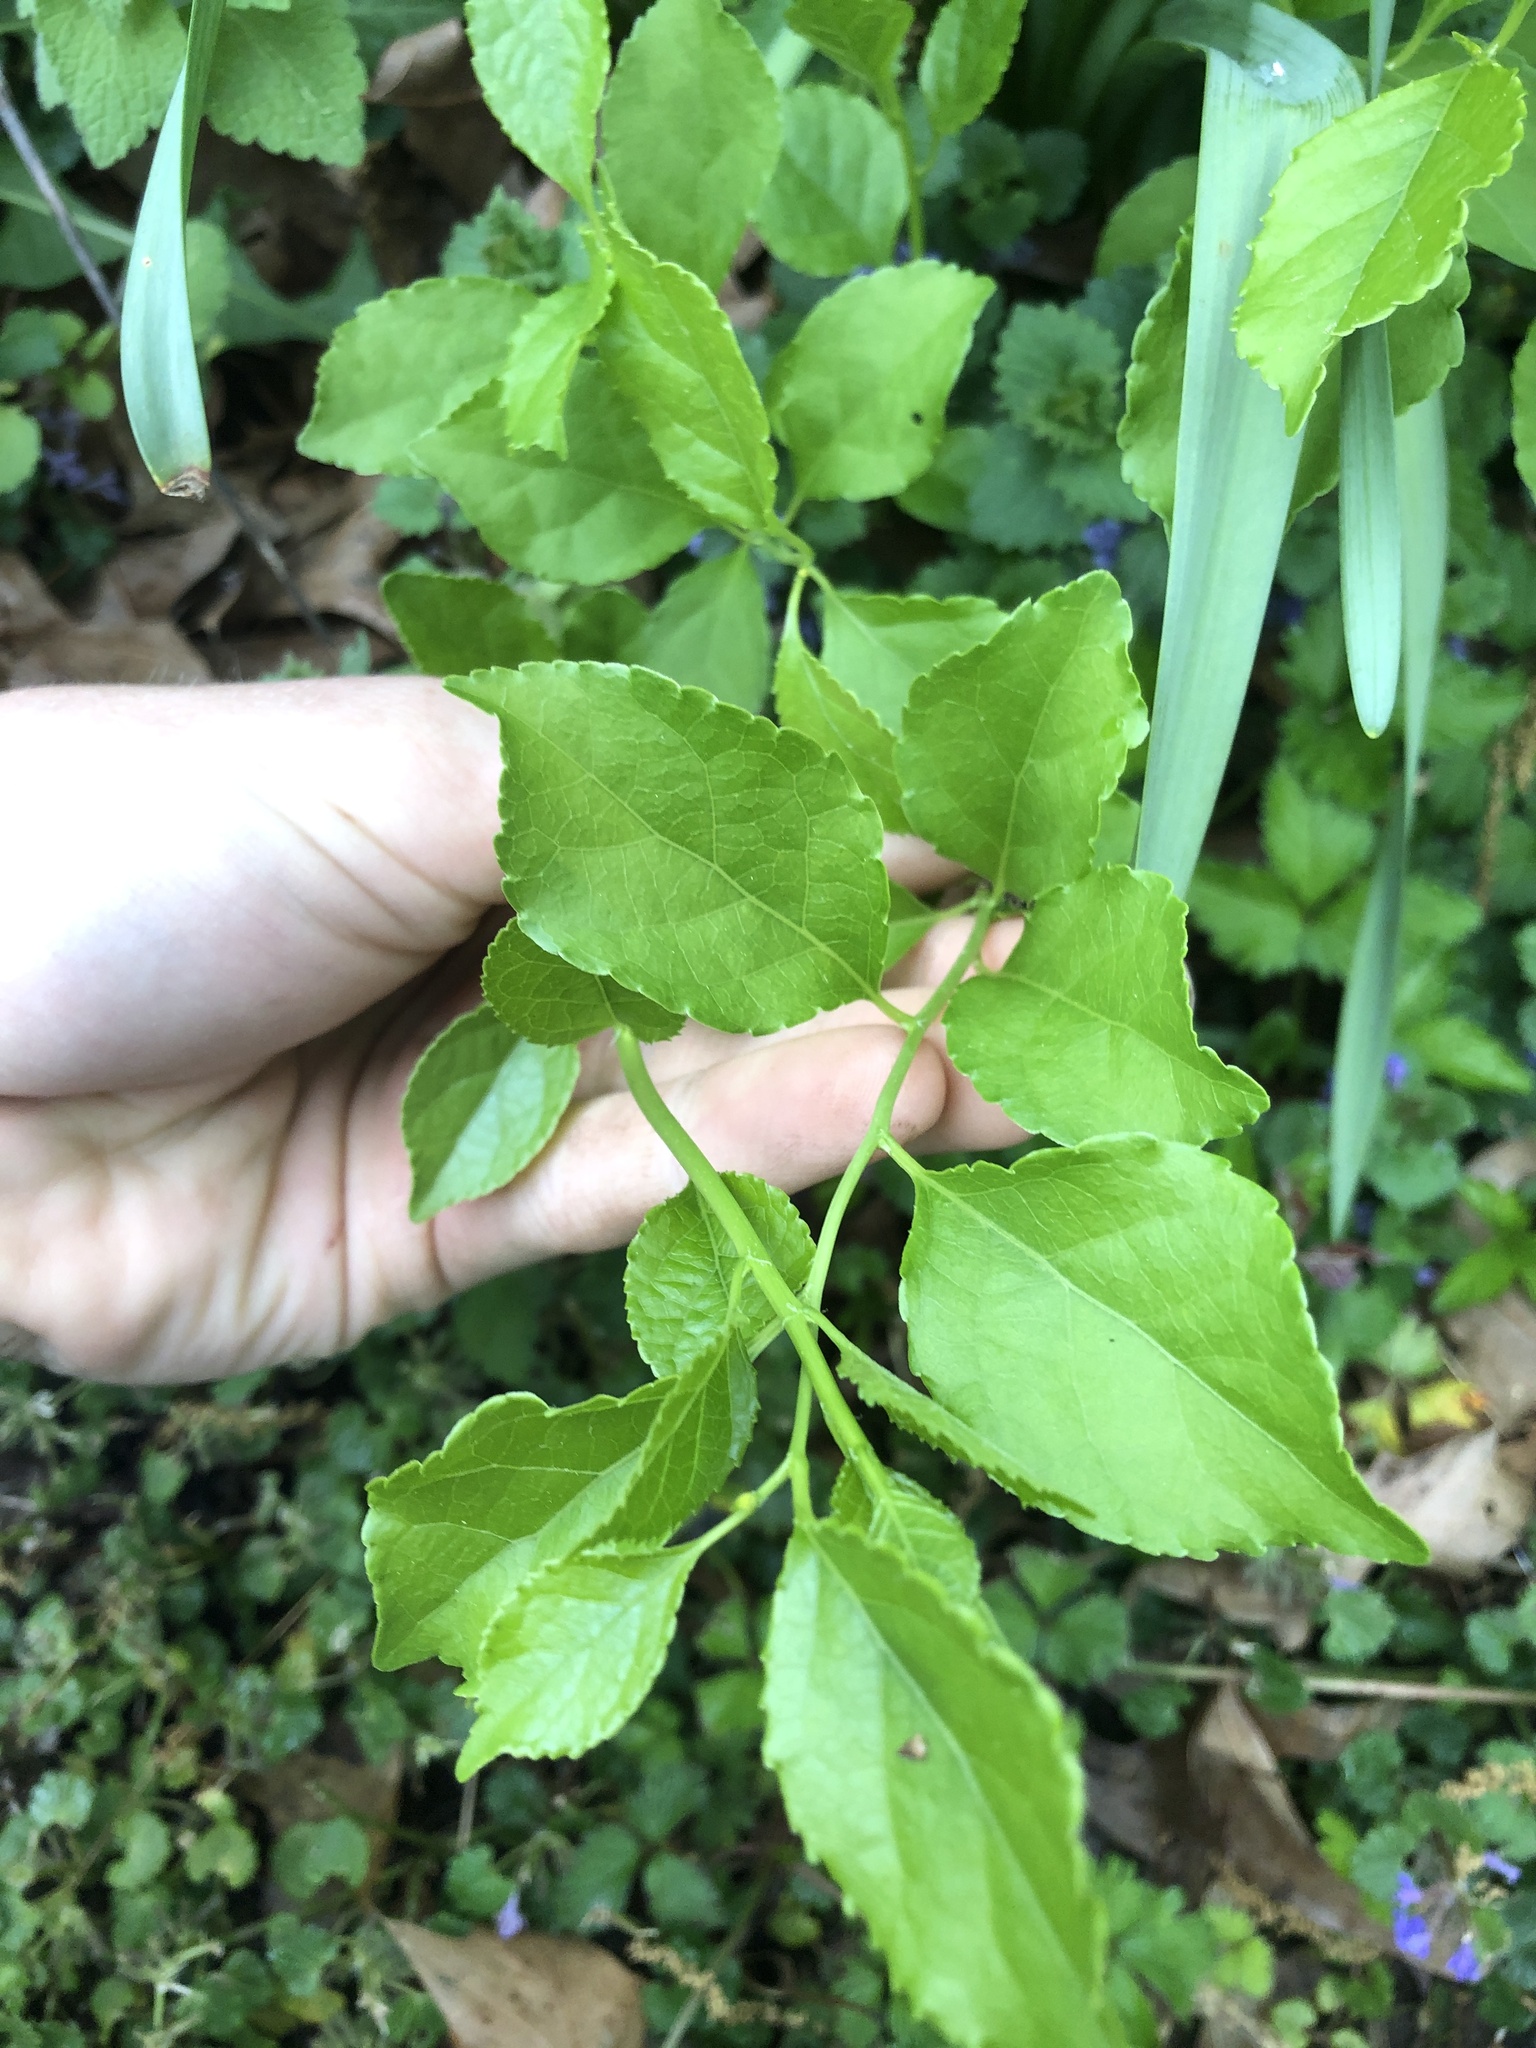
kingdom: Plantae
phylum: Tracheophyta
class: Magnoliopsida
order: Celastrales
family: Celastraceae
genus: Celastrus
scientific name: Celastrus orbiculatus
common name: Oriental bittersweet
